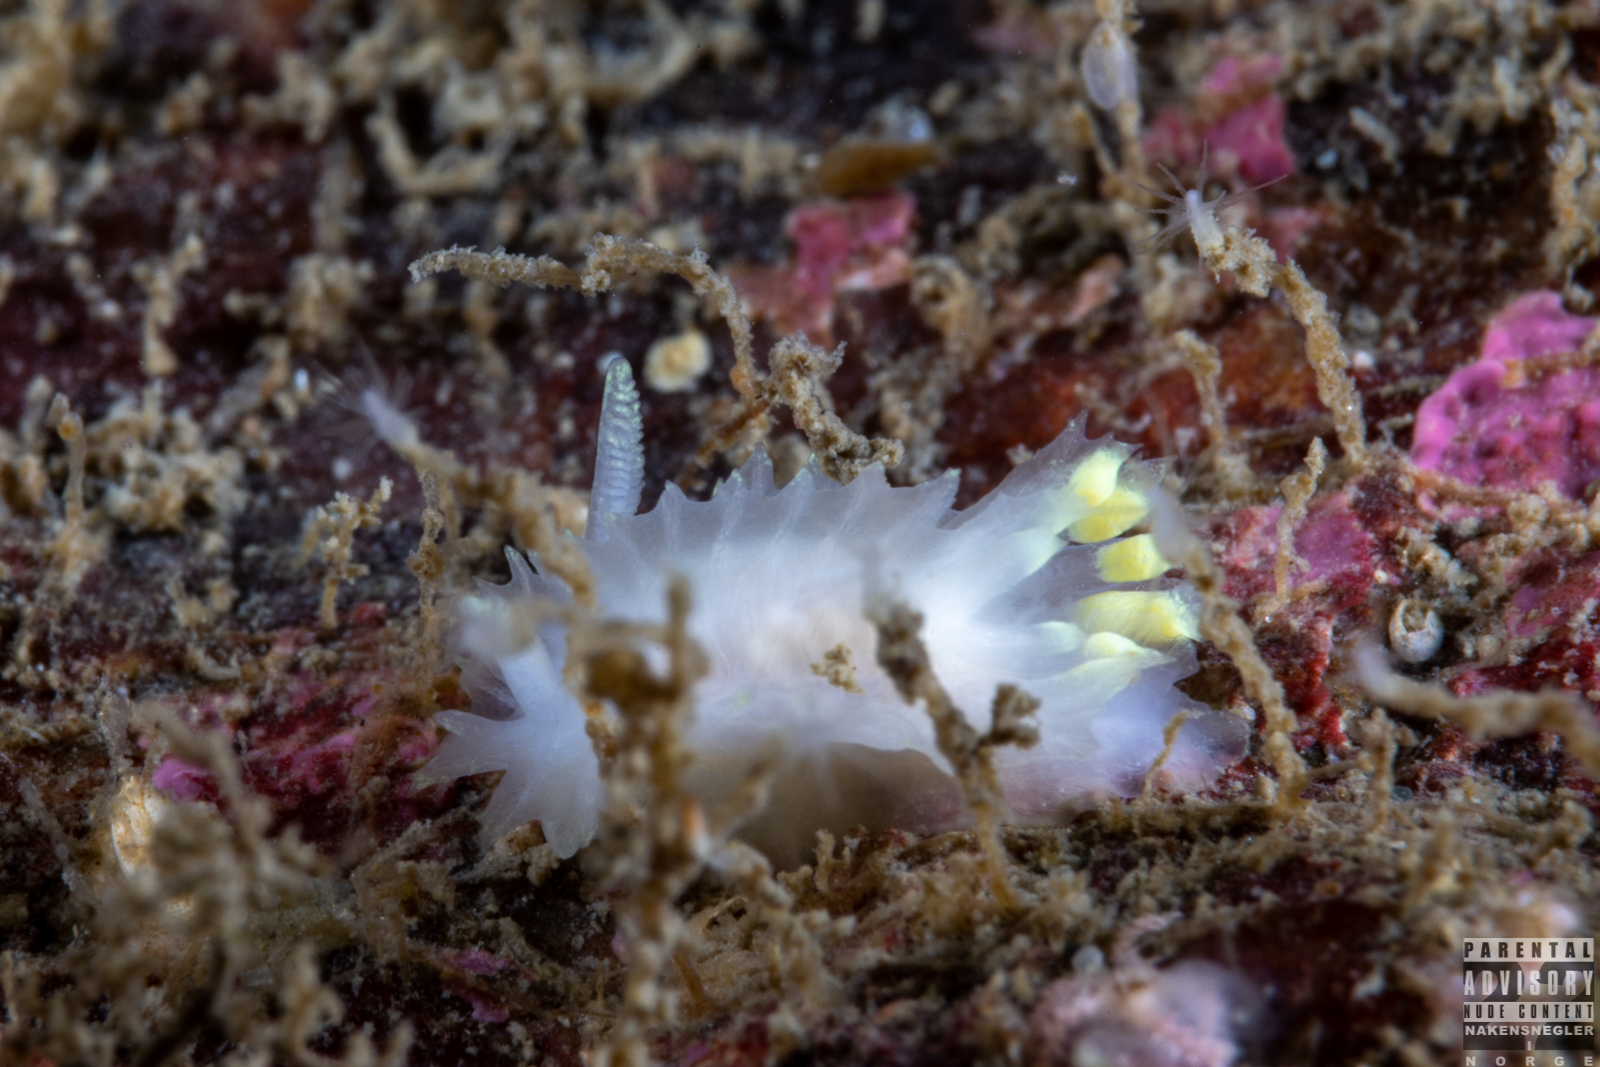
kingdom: Animalia
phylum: Mollusca
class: Gastropoda
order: Nudibranchia
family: Goniodorididae
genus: Lophodoris
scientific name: Lophodoris danielsseni
